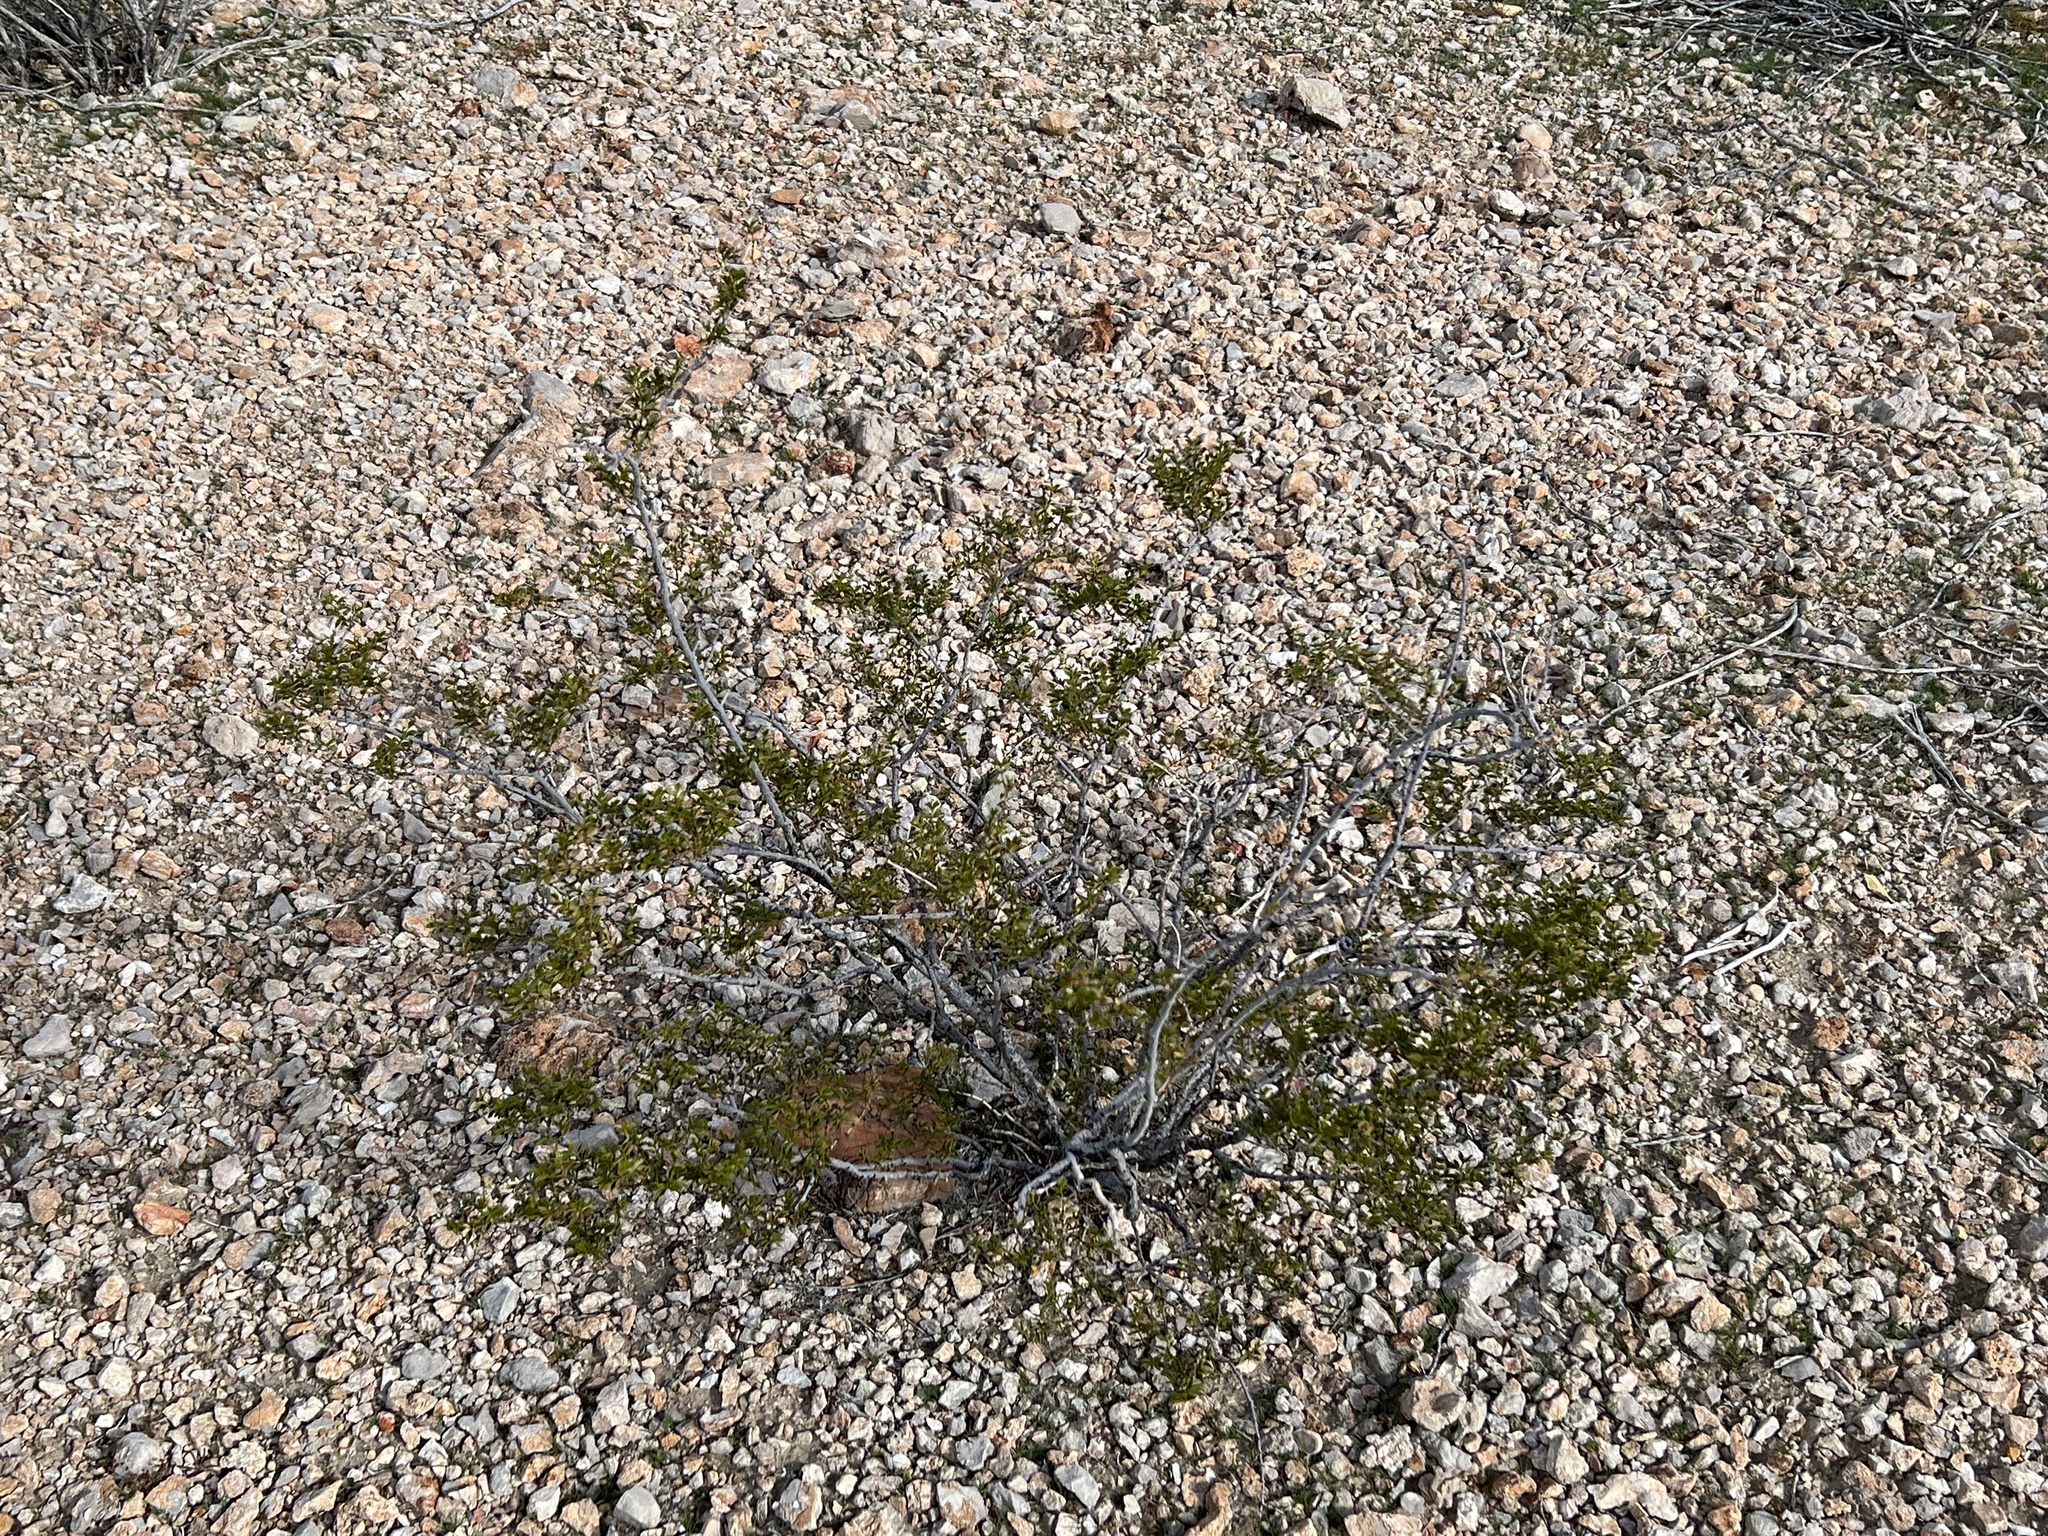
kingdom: Plantae
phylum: Tracheophyta
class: Magnoliopsida
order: Zygophyllales
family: Zygophyllaceae
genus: Larrea
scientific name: Larrea tridentata
